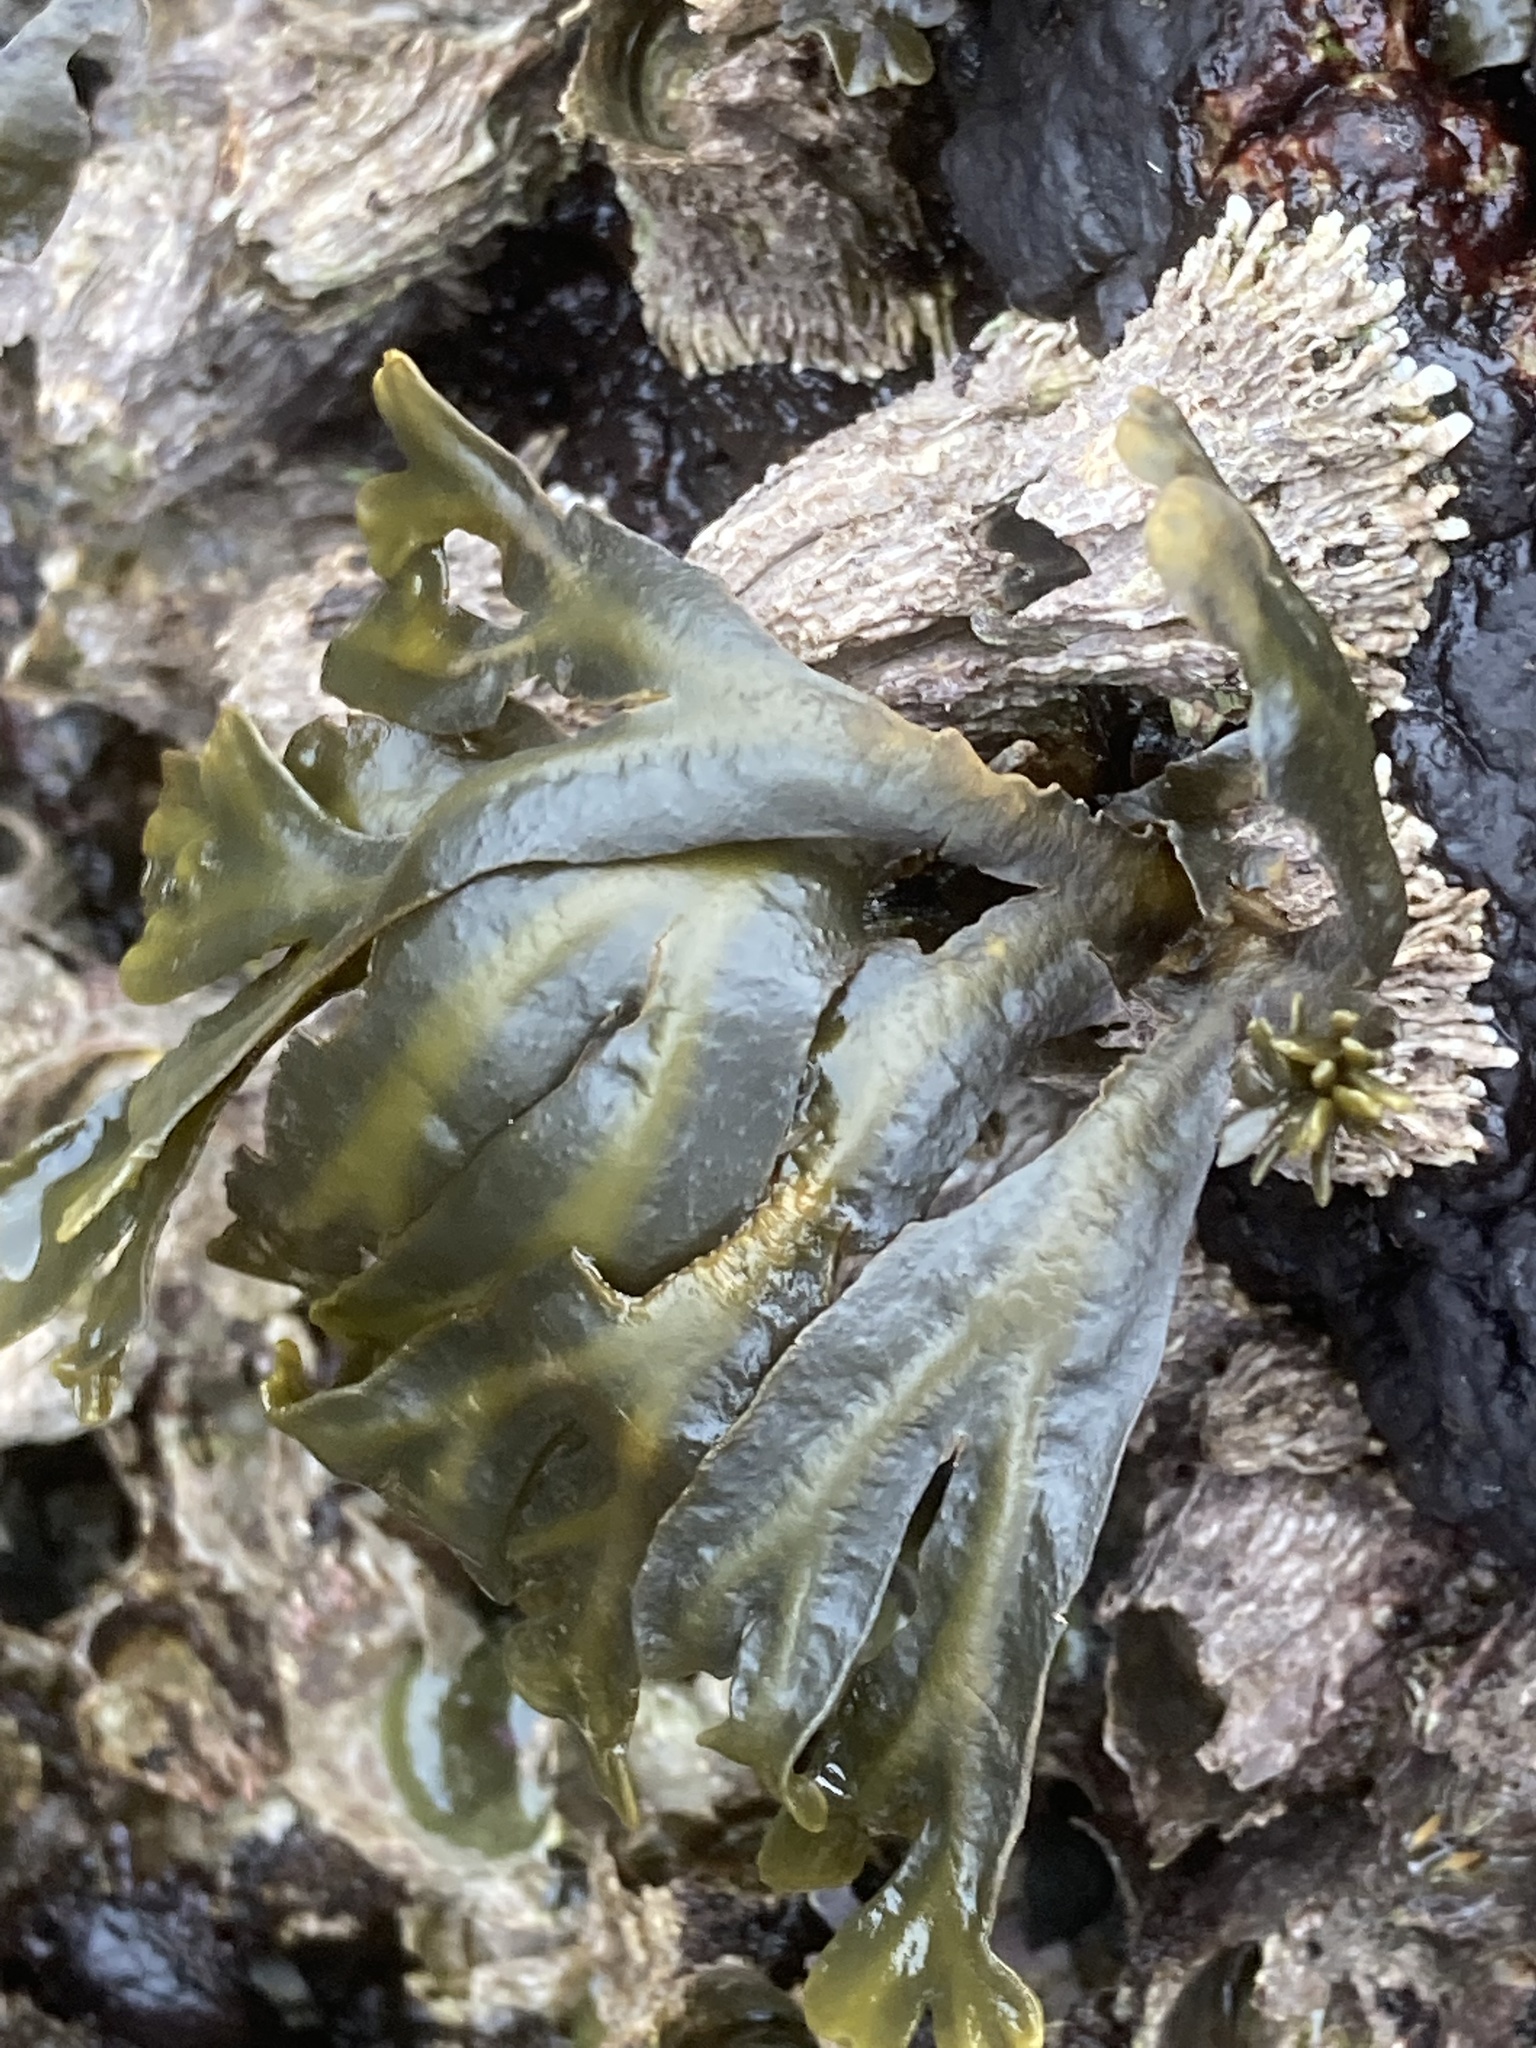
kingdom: Chromista
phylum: Ochrophyta
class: Phaeophyceae
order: Fucales
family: Fucaceae
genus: Fucus
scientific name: Fucus distichus
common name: Rockweed
